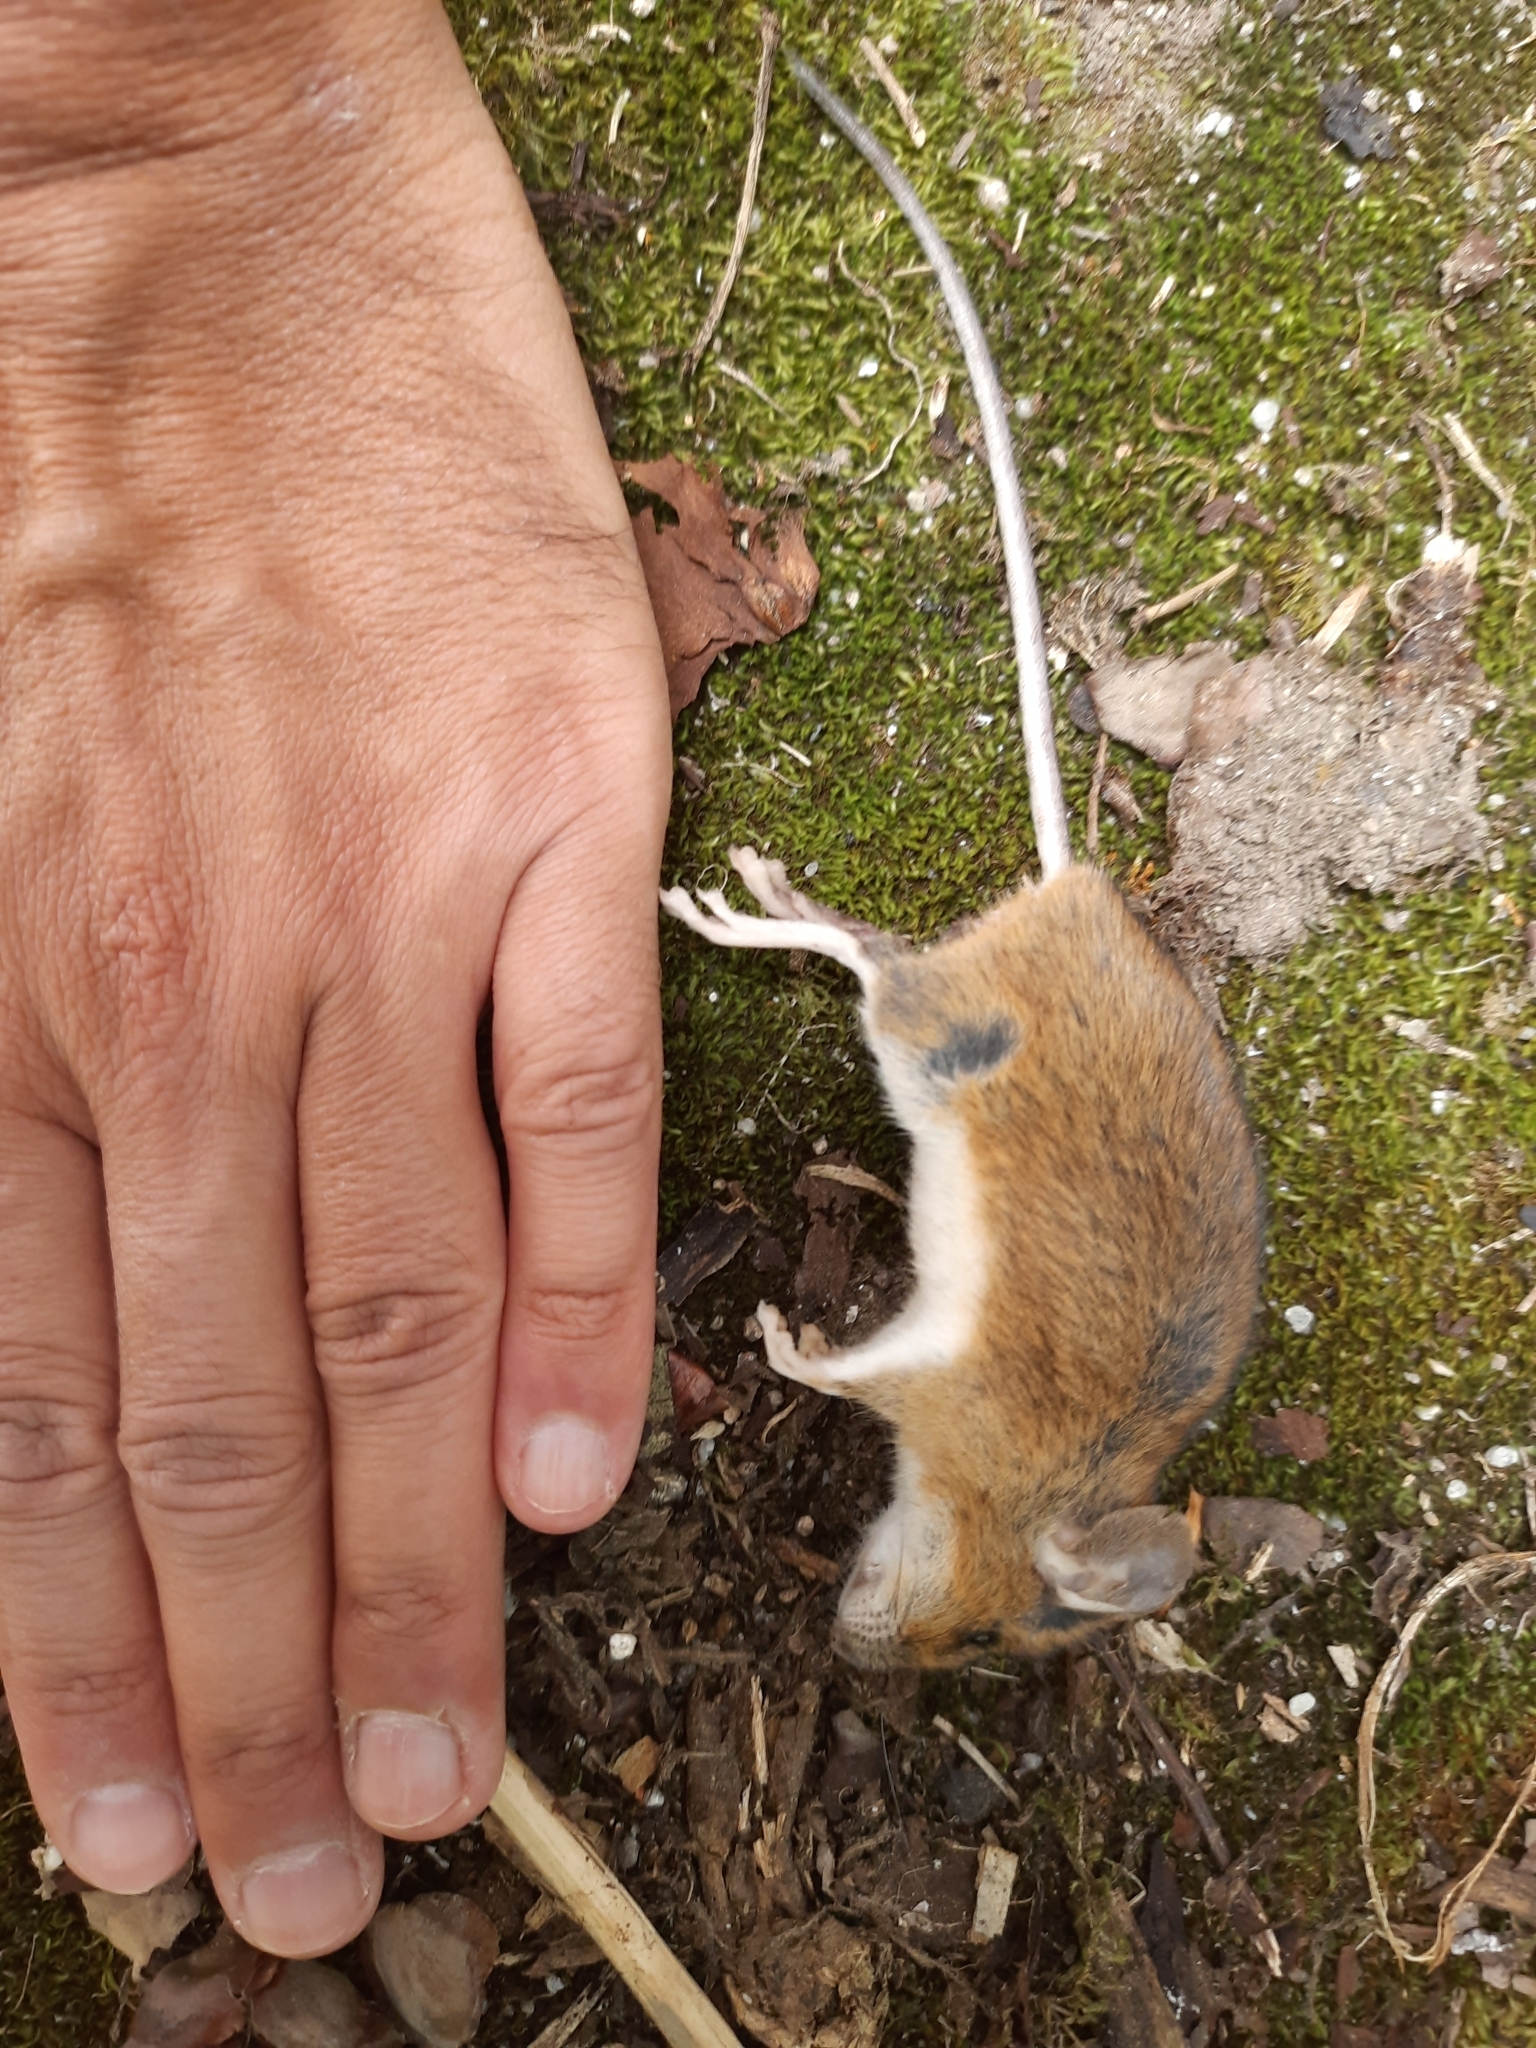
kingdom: Animalia
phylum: Chordata
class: Mammalia
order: Rodentia
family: Muridae
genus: Apodemus
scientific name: Apodemus sylvaticus
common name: Wood mouse
